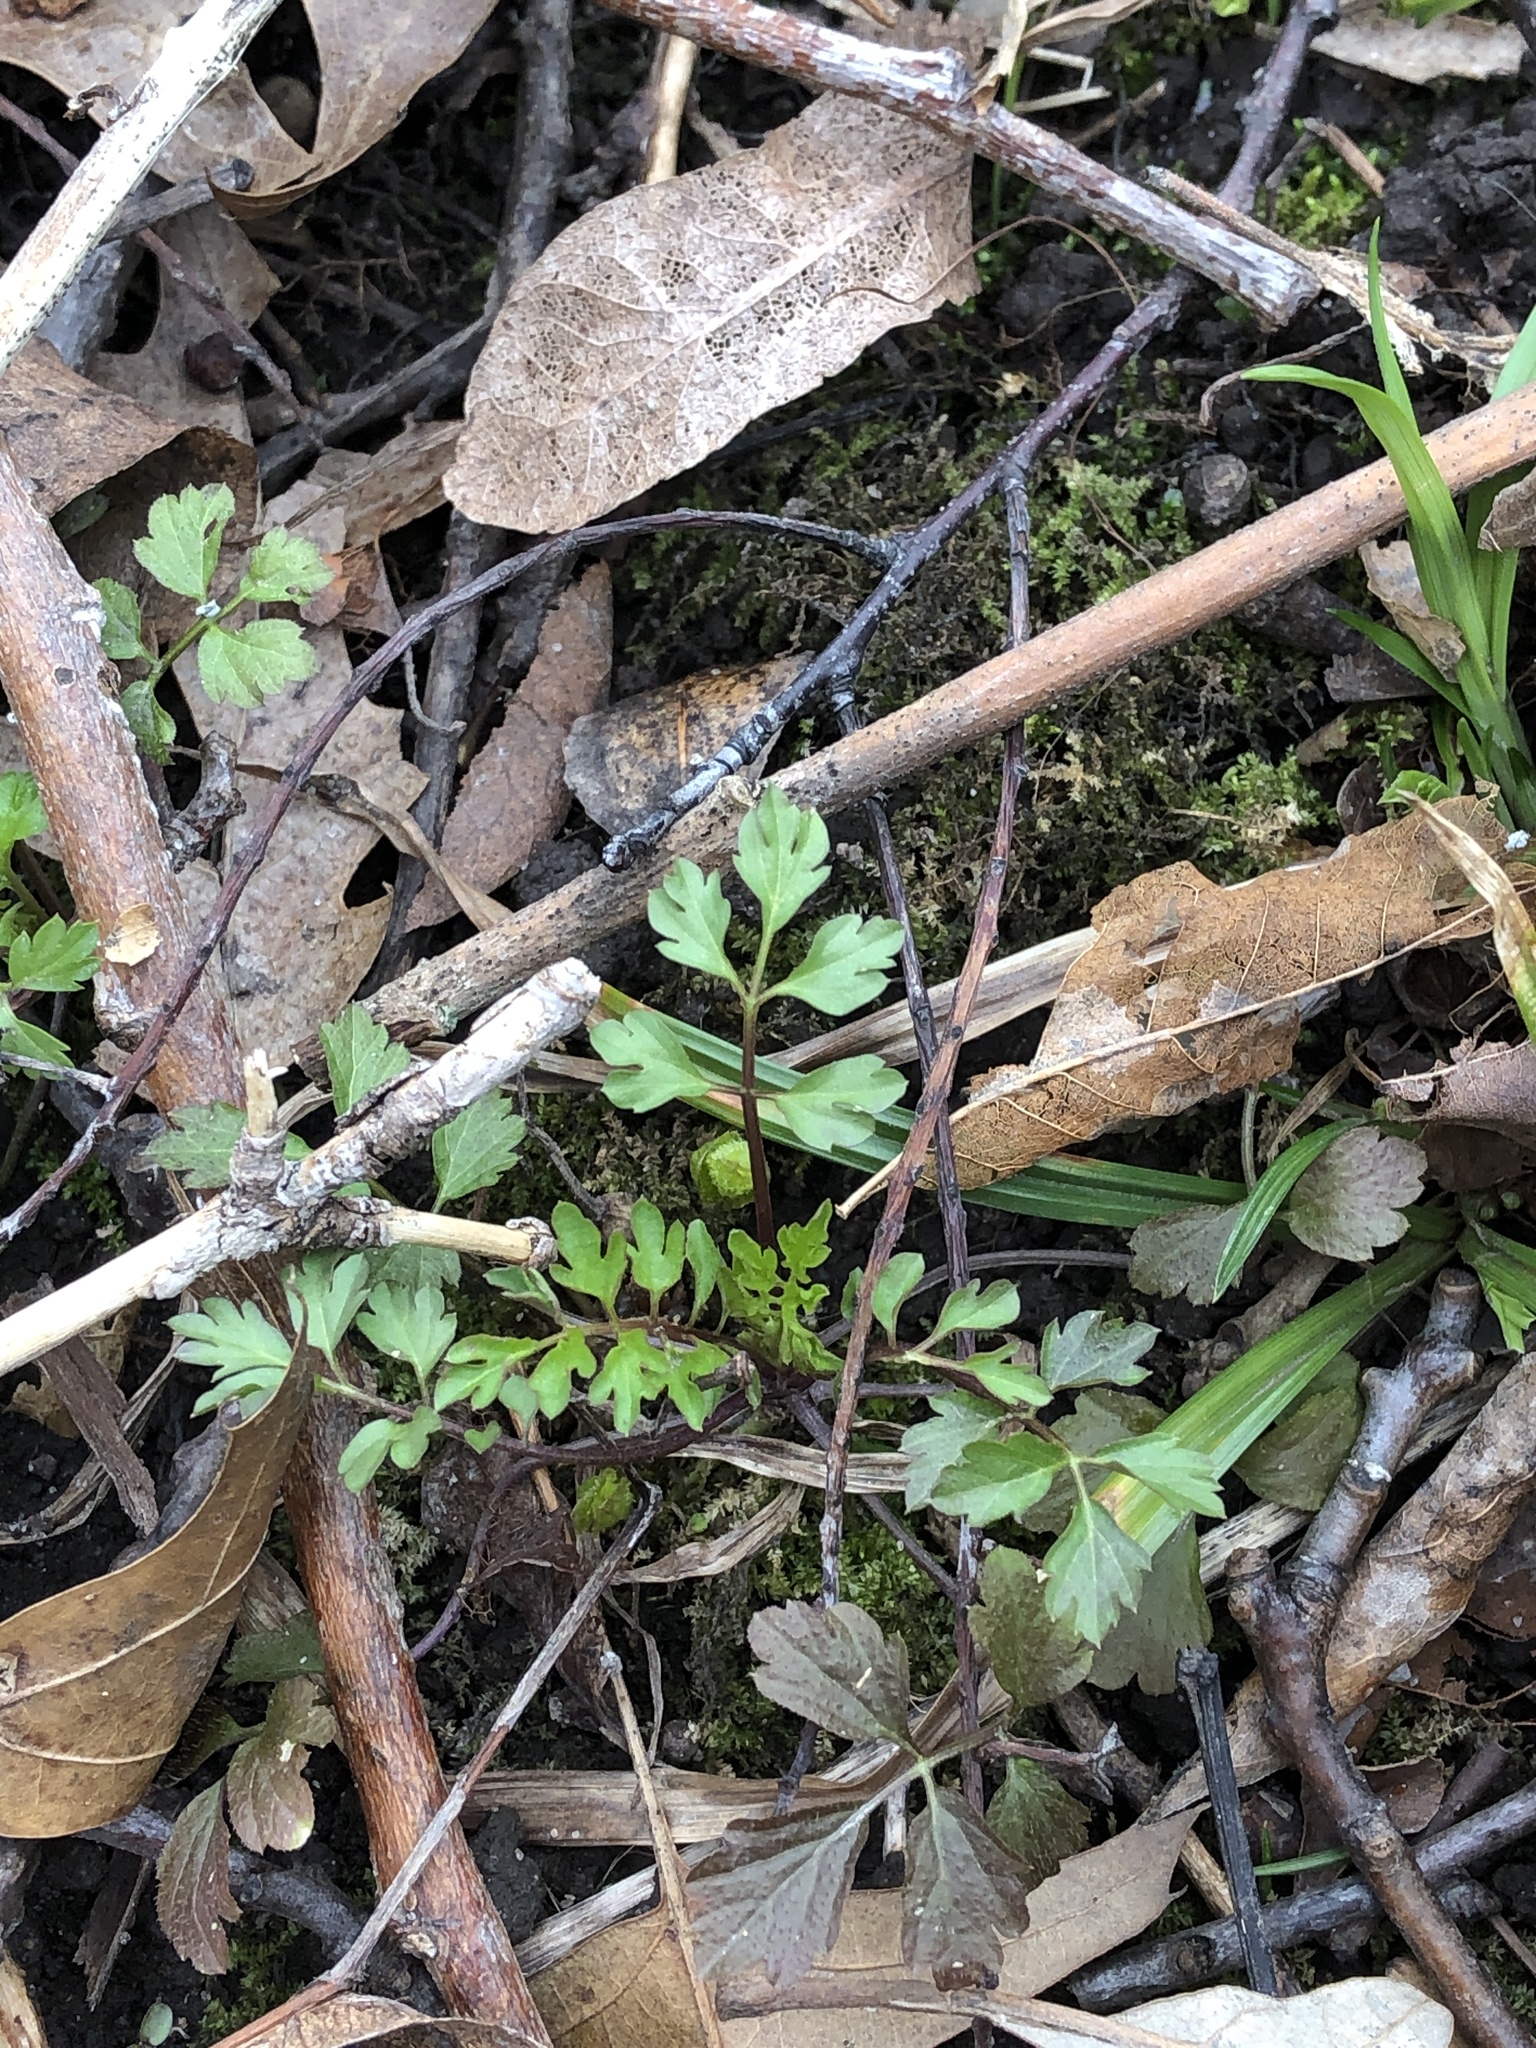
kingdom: Plantae
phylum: Tracheophyta
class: Magnoliopsida
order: Brassicales
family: Brassicaceae
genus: Cardamine
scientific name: Cardamine impatiens
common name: Narrow-leaved bitter-cress
